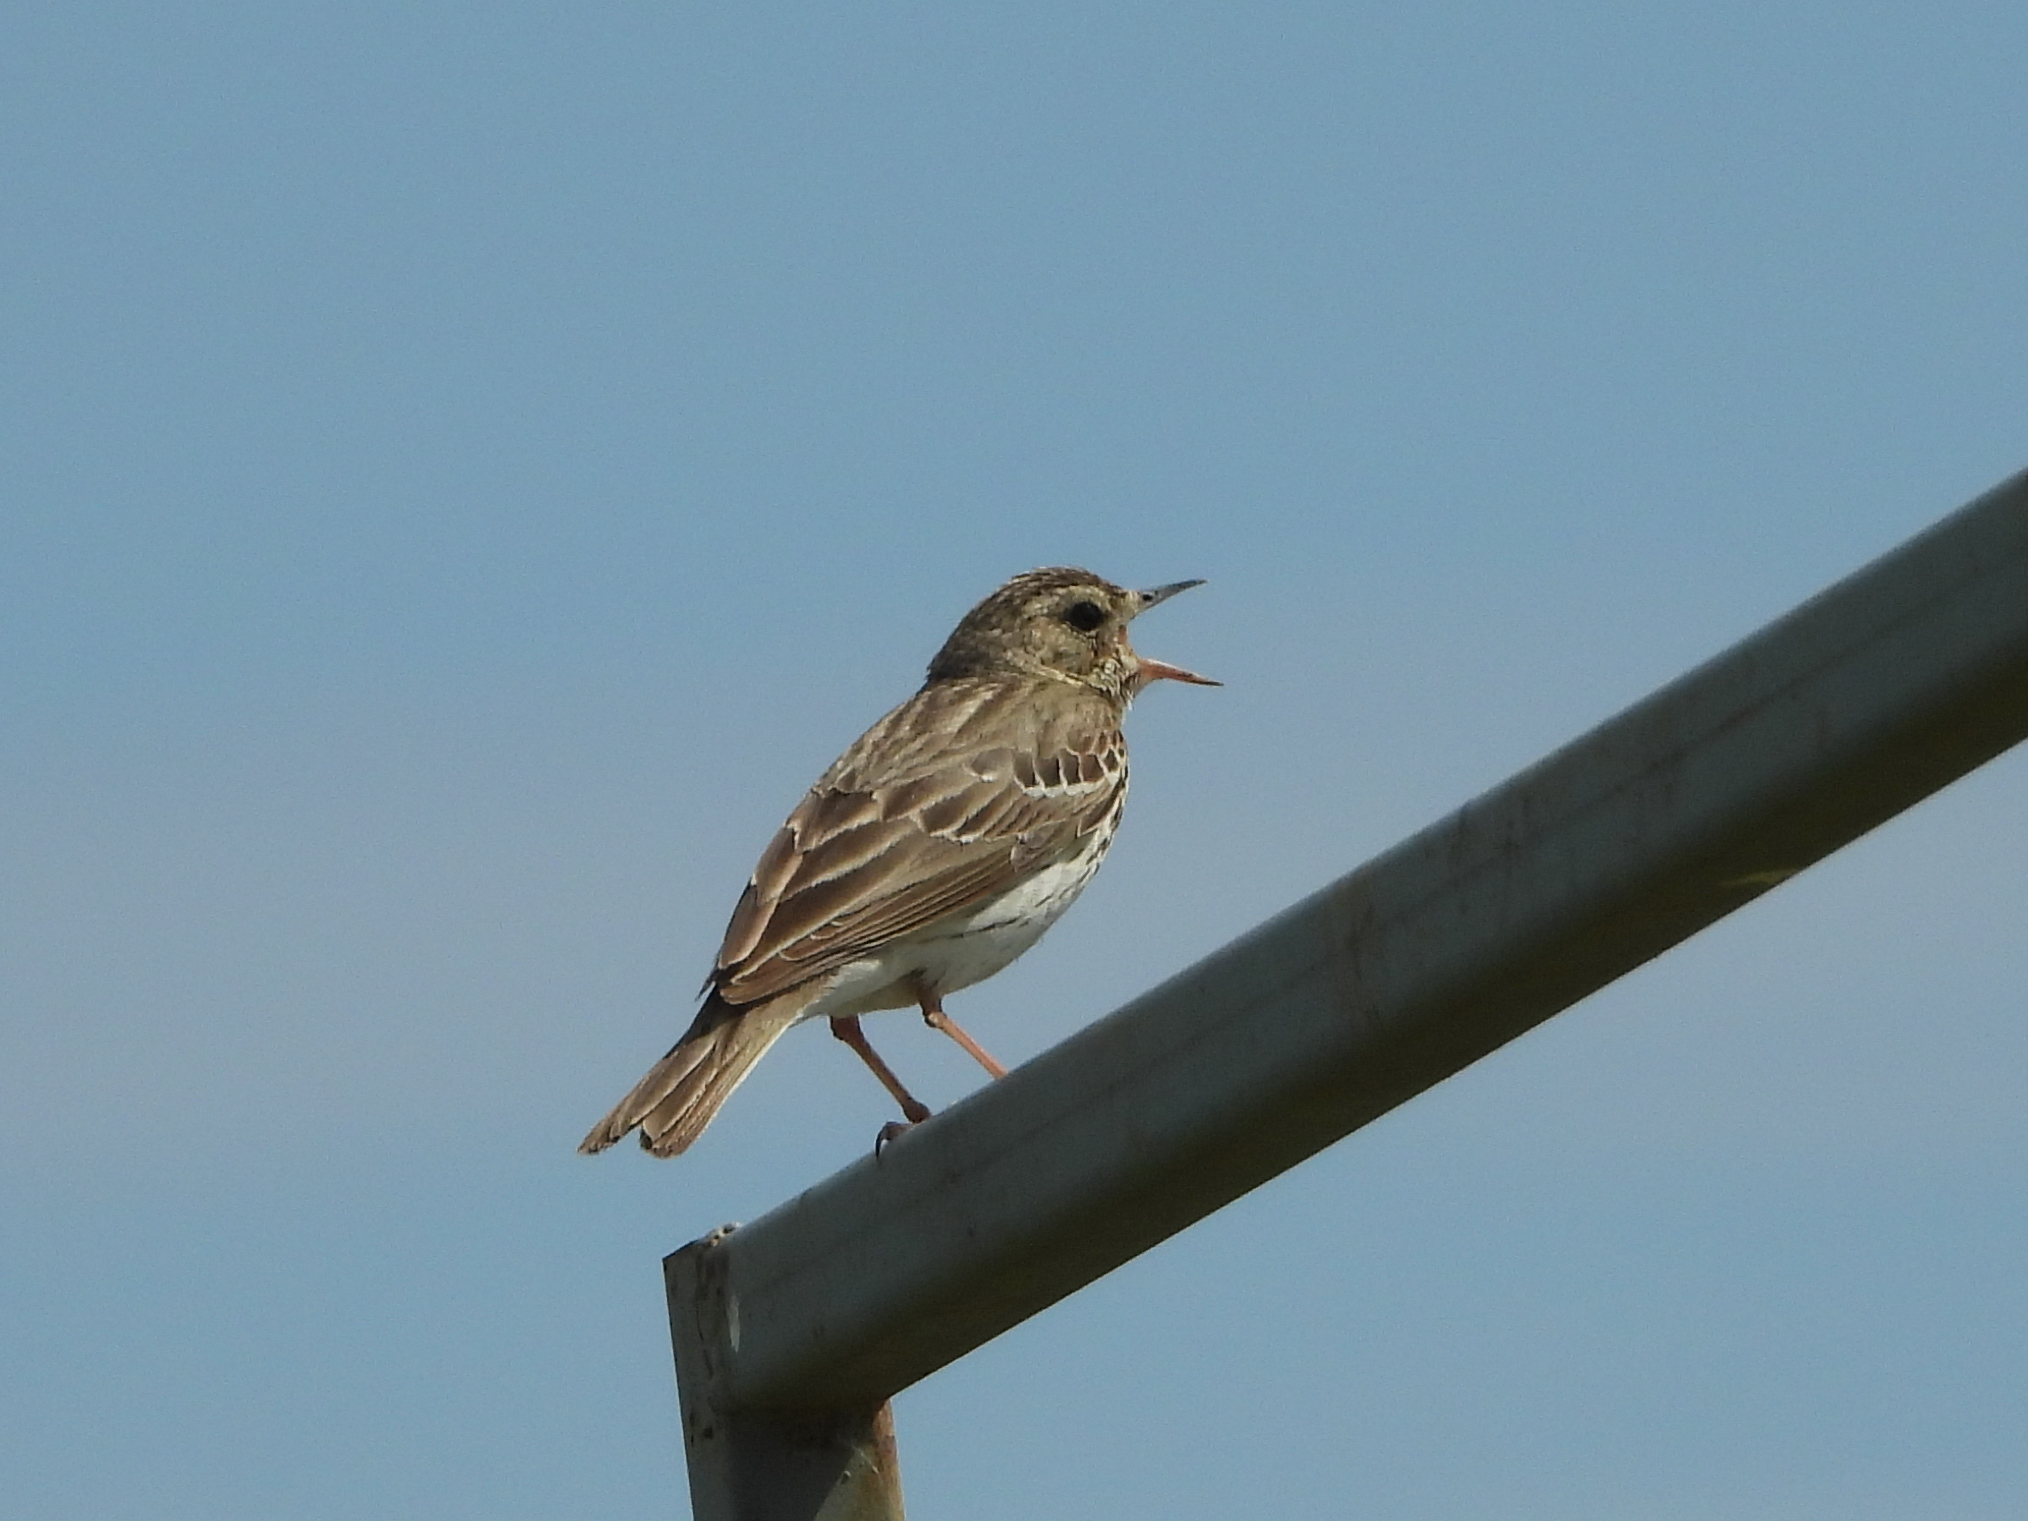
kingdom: Animalia
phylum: Chordata
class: Aves
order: Passeriformes
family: Motacillidae
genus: Anthus
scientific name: Anthus trivialis
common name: Tree pipit
